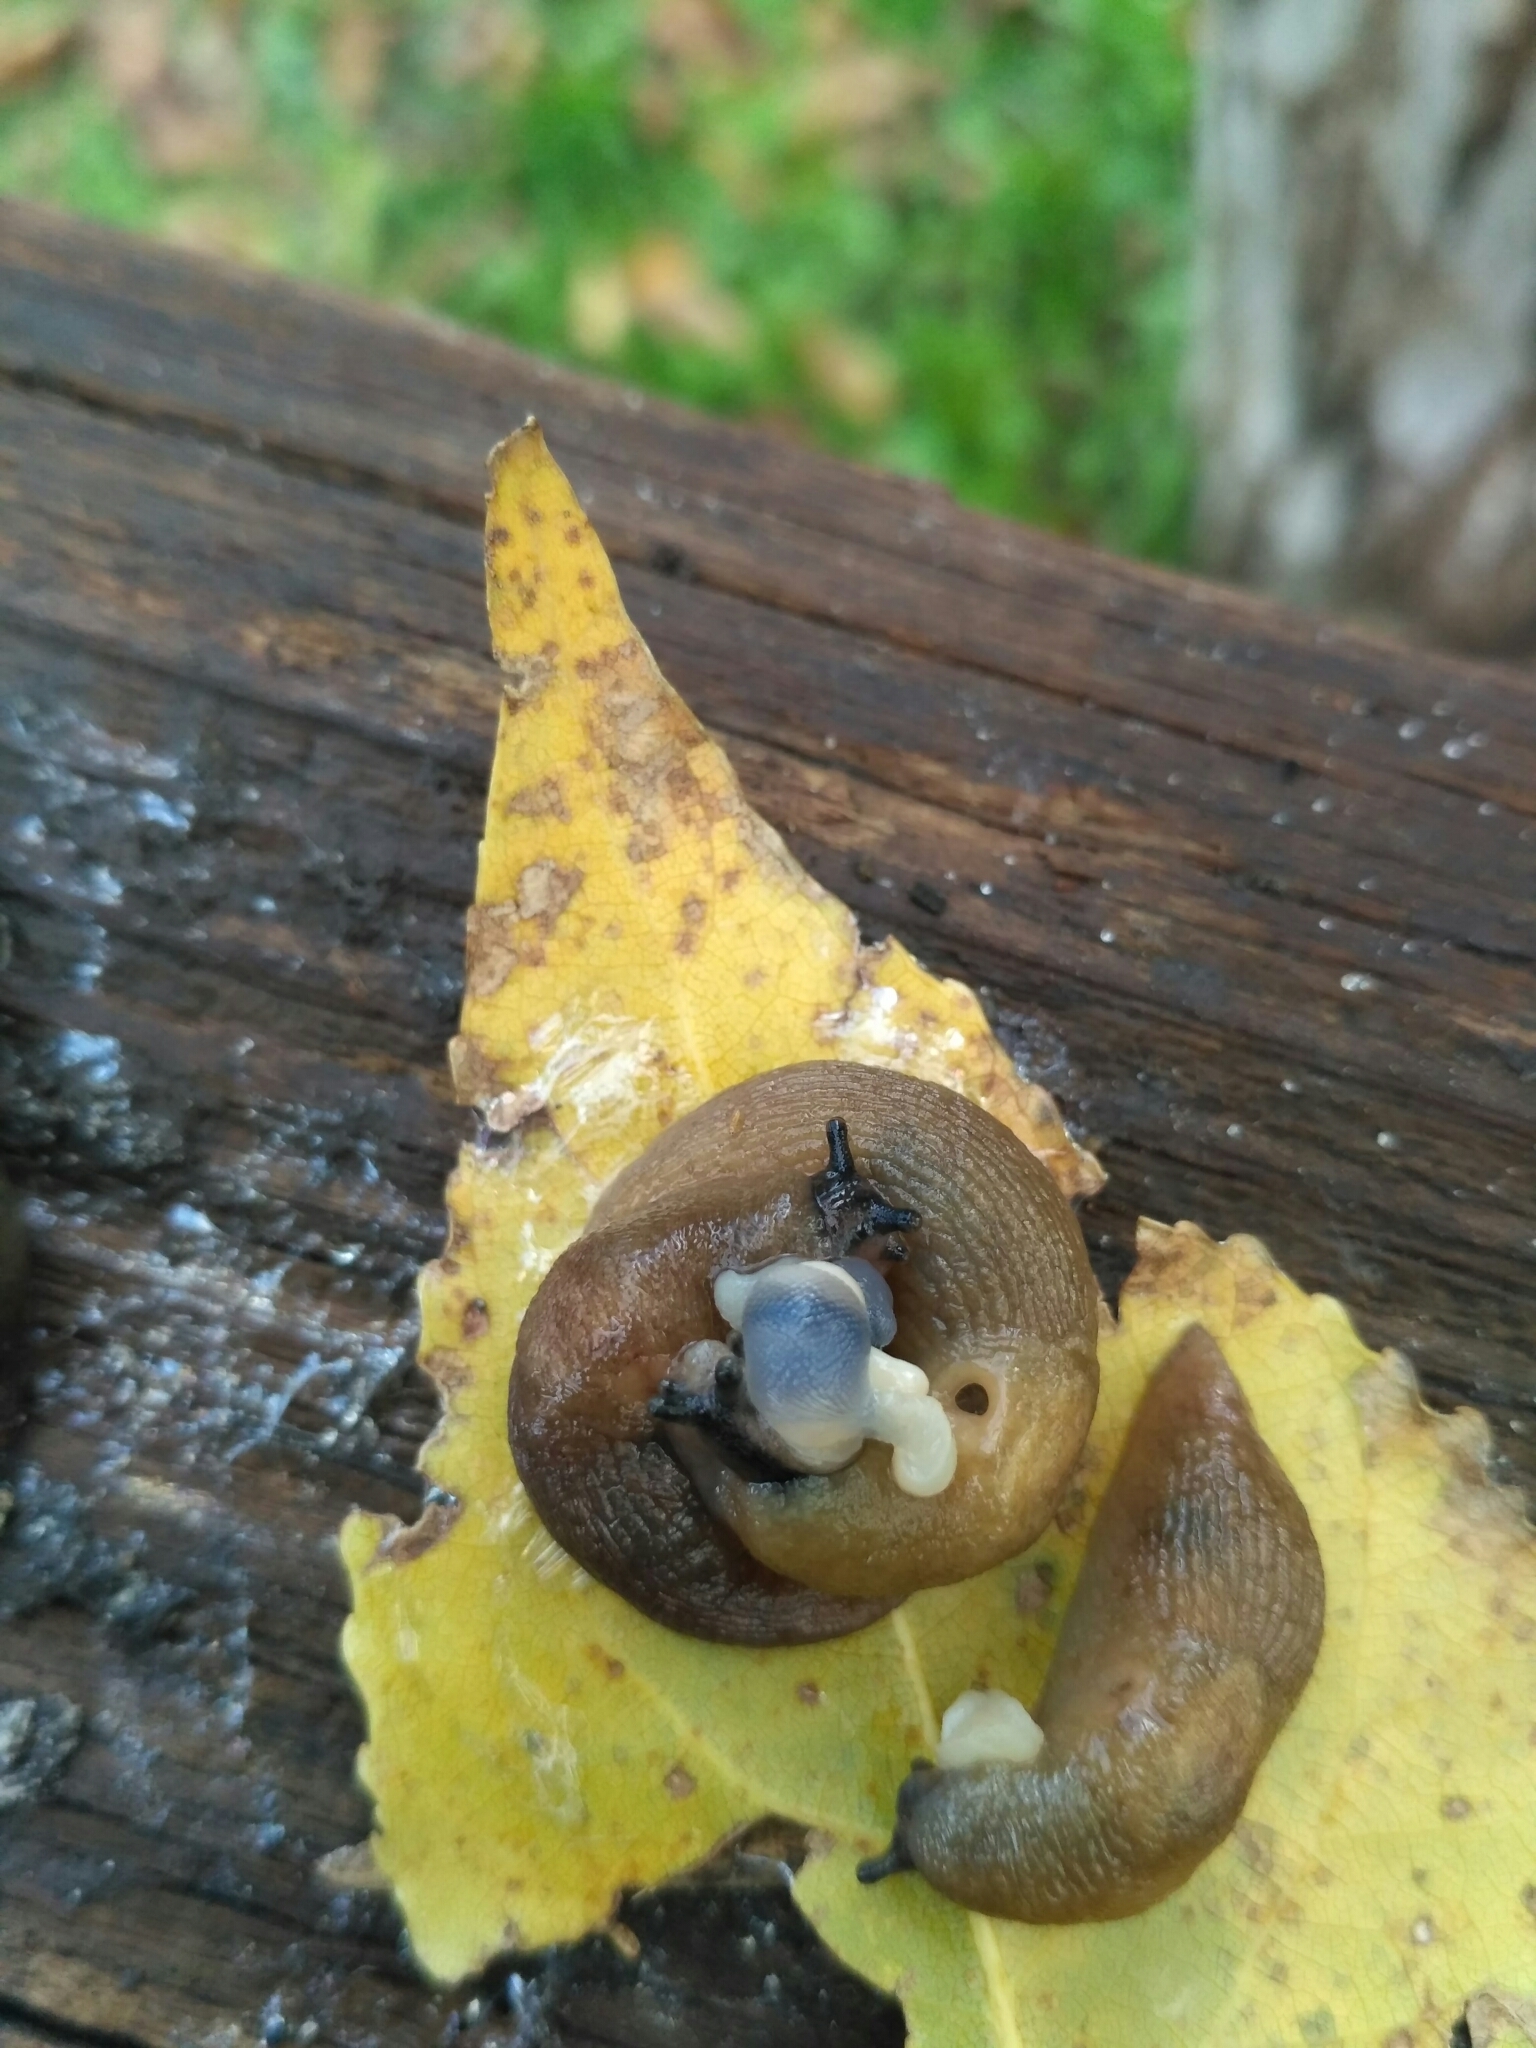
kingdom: Animalia
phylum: Mollusca
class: Gastropoda
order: Stylommatophora
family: Agriolimacidae
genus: Deroceras
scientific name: Deroceras caucasicum
